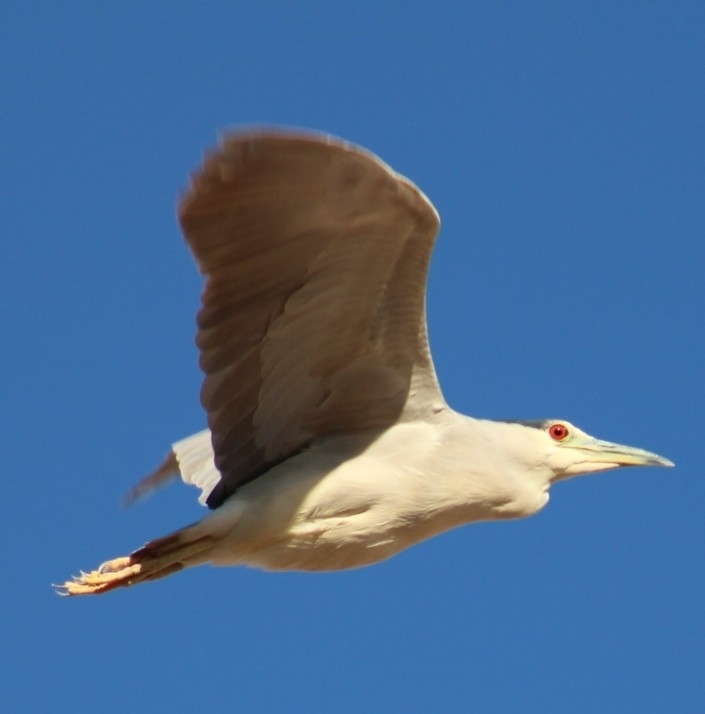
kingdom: Animalia
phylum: Chordata
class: Aves
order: Pelecaniformes
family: Ardeidae
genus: Nycticorax
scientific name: Nycticorax nycticorax
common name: Black-crowned night heron
